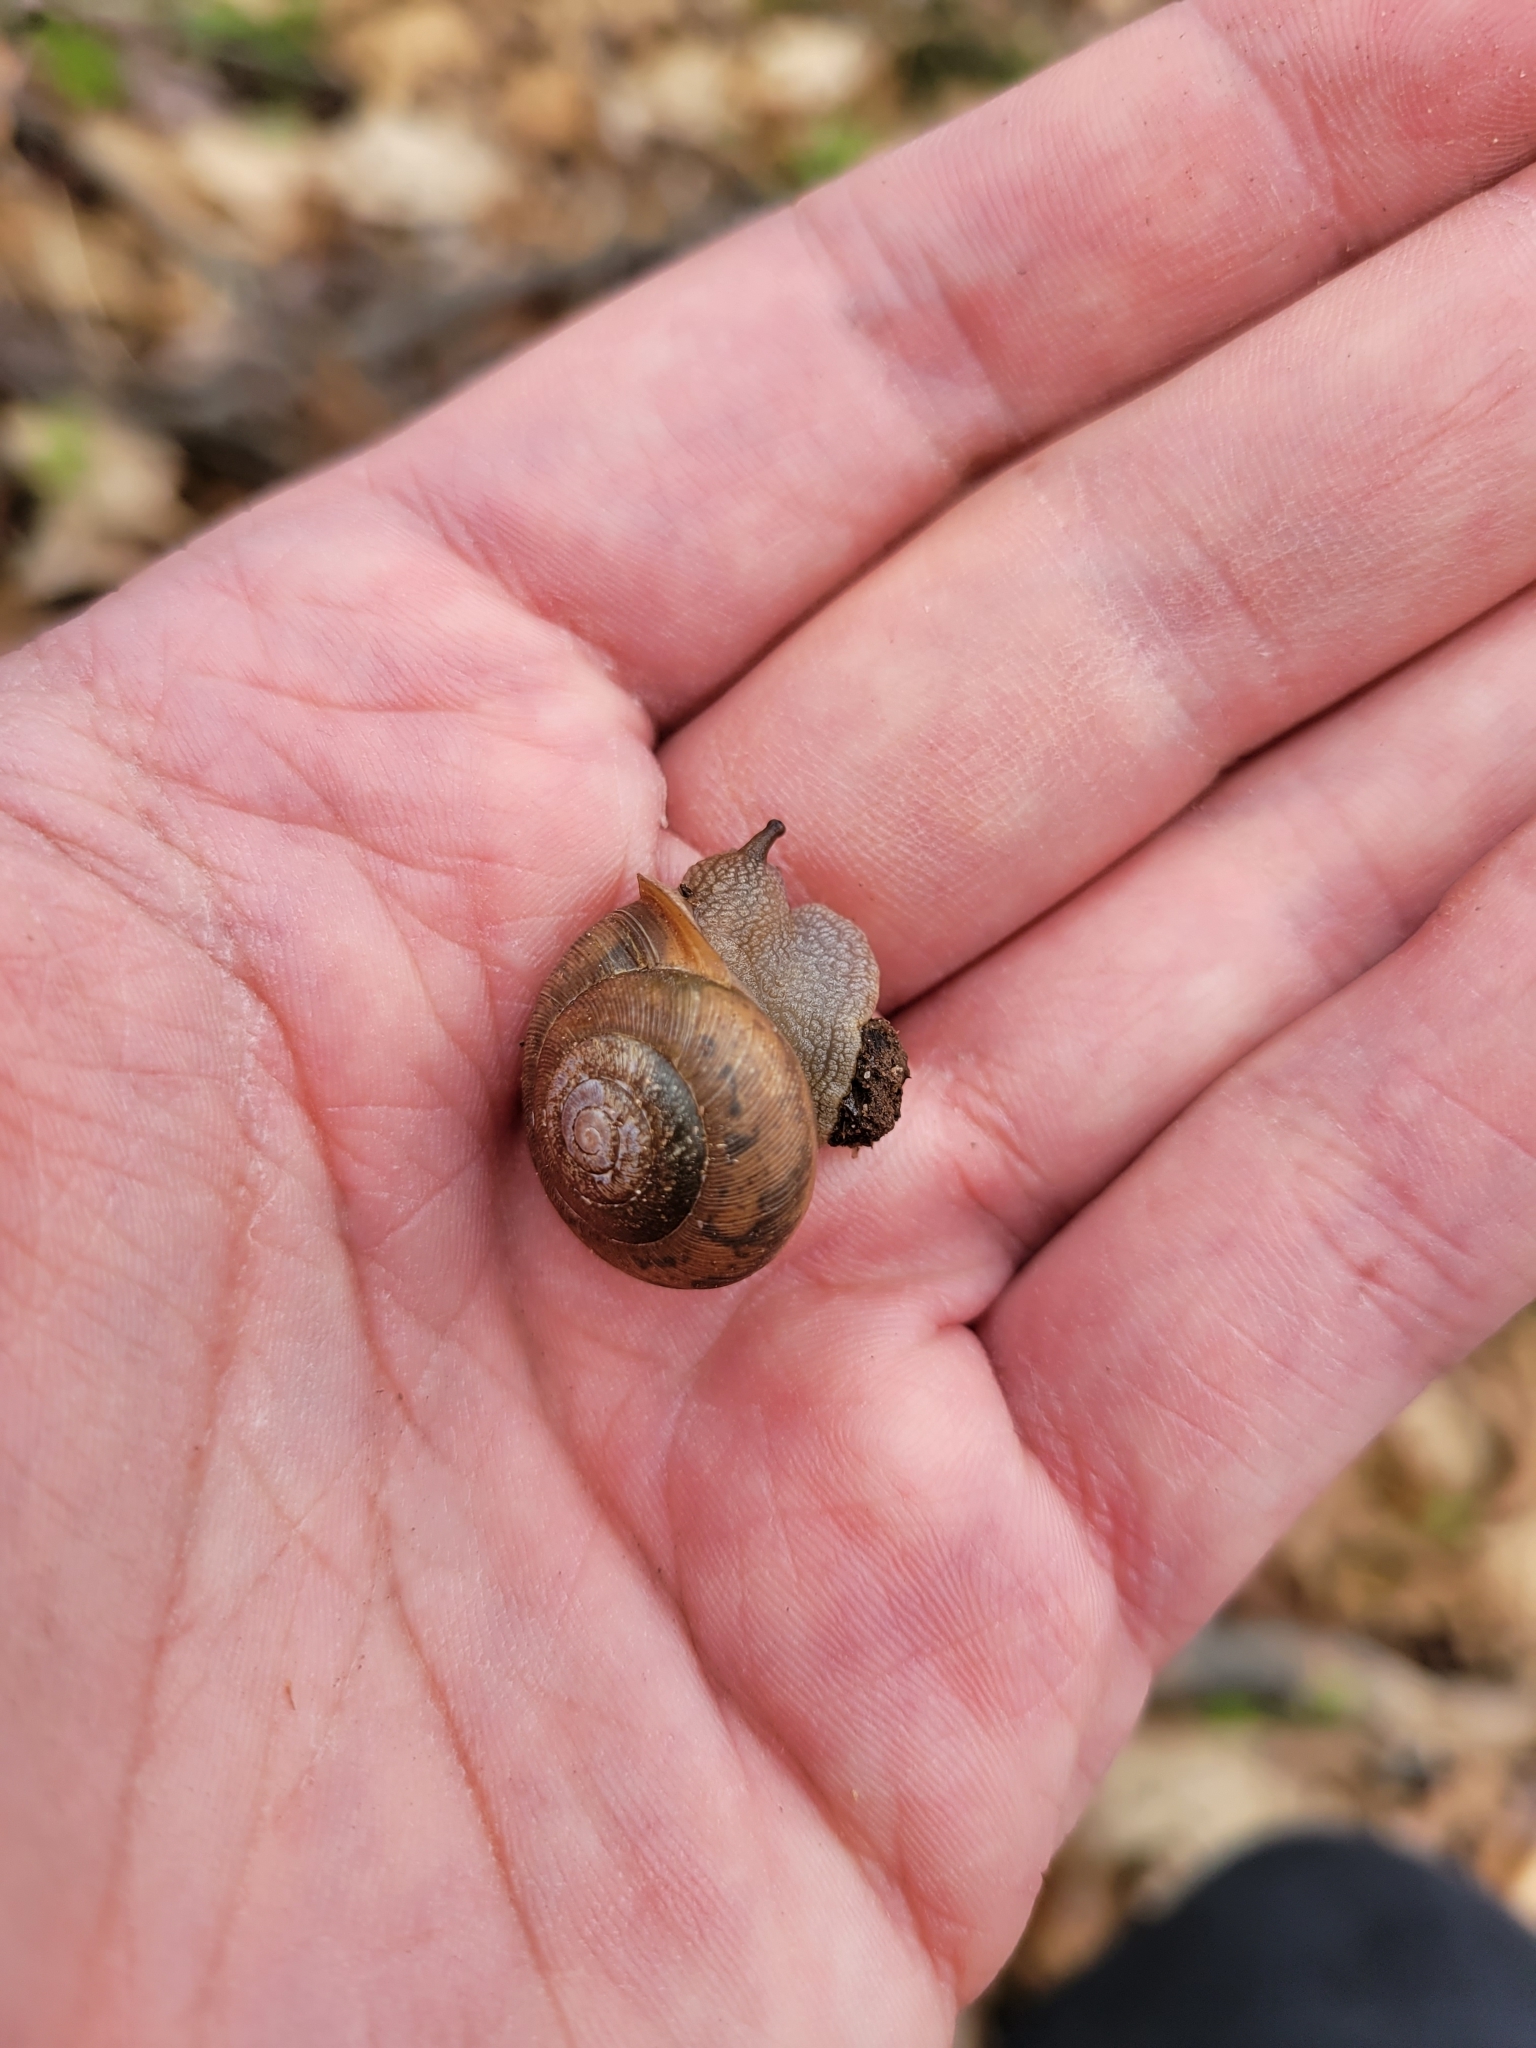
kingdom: Animalia
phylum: Mollusca
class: Gastropoda
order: Stylommatophora
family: Polygyridae
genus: Mesodon
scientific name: Mesodon thyroidus
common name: White-lip globe
